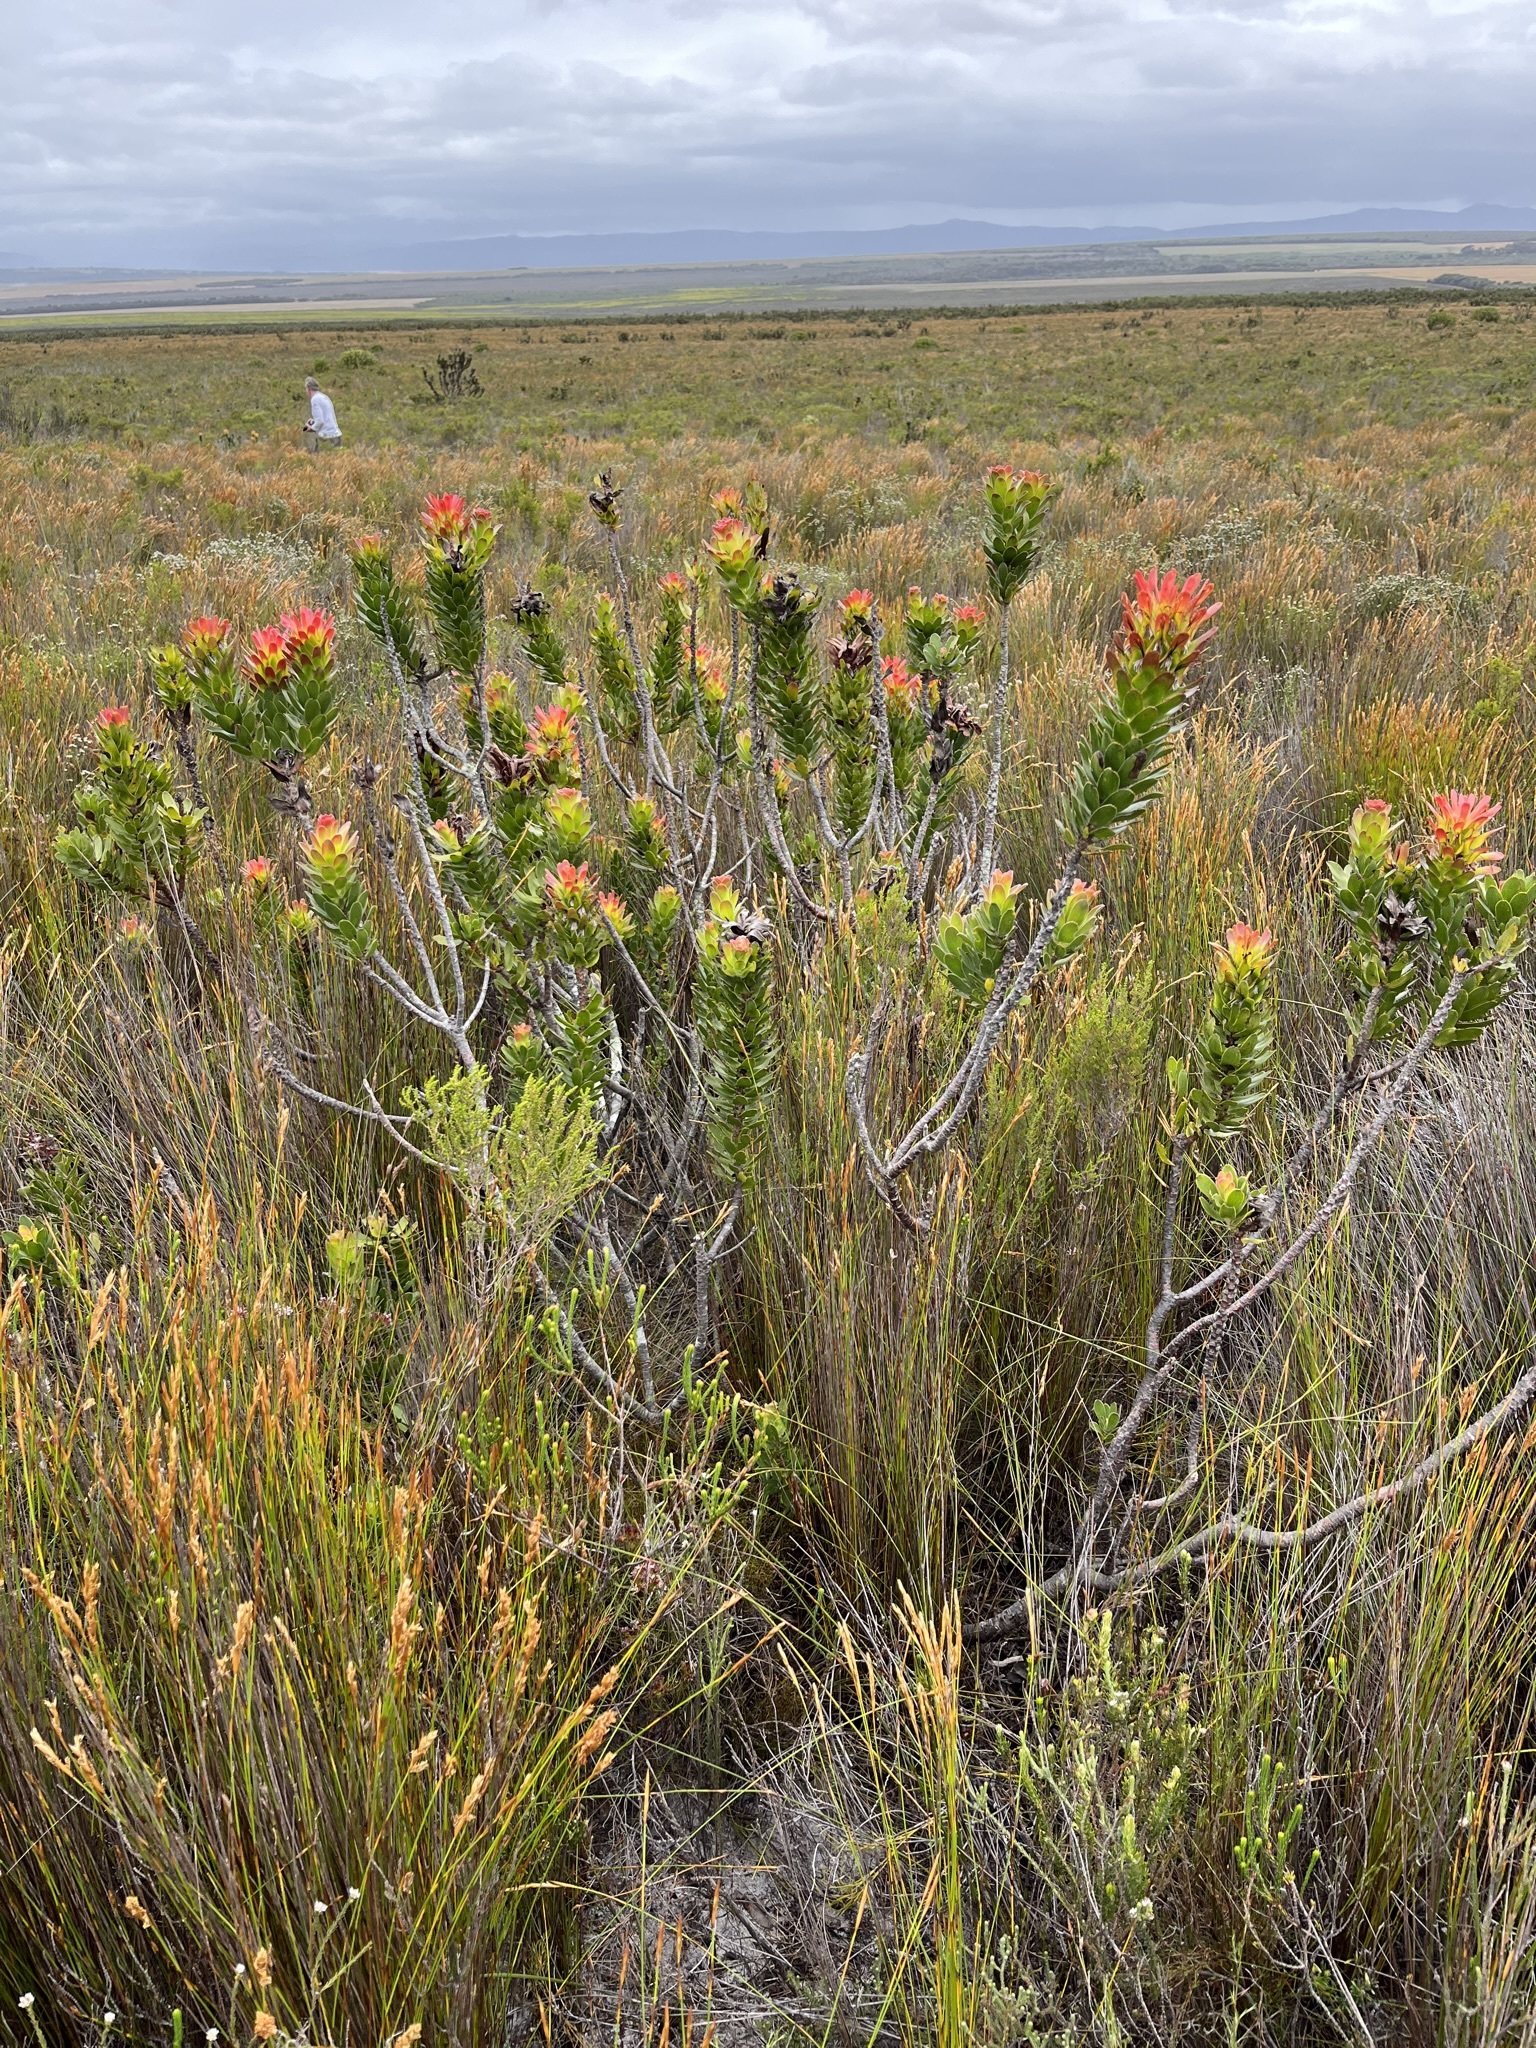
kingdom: Plantae
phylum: Tracheophyta
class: Magnoliopsida
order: Proteales
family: Proteaceae
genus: Mimetes
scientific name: Mimetes cucullatus
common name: Common pagoda
